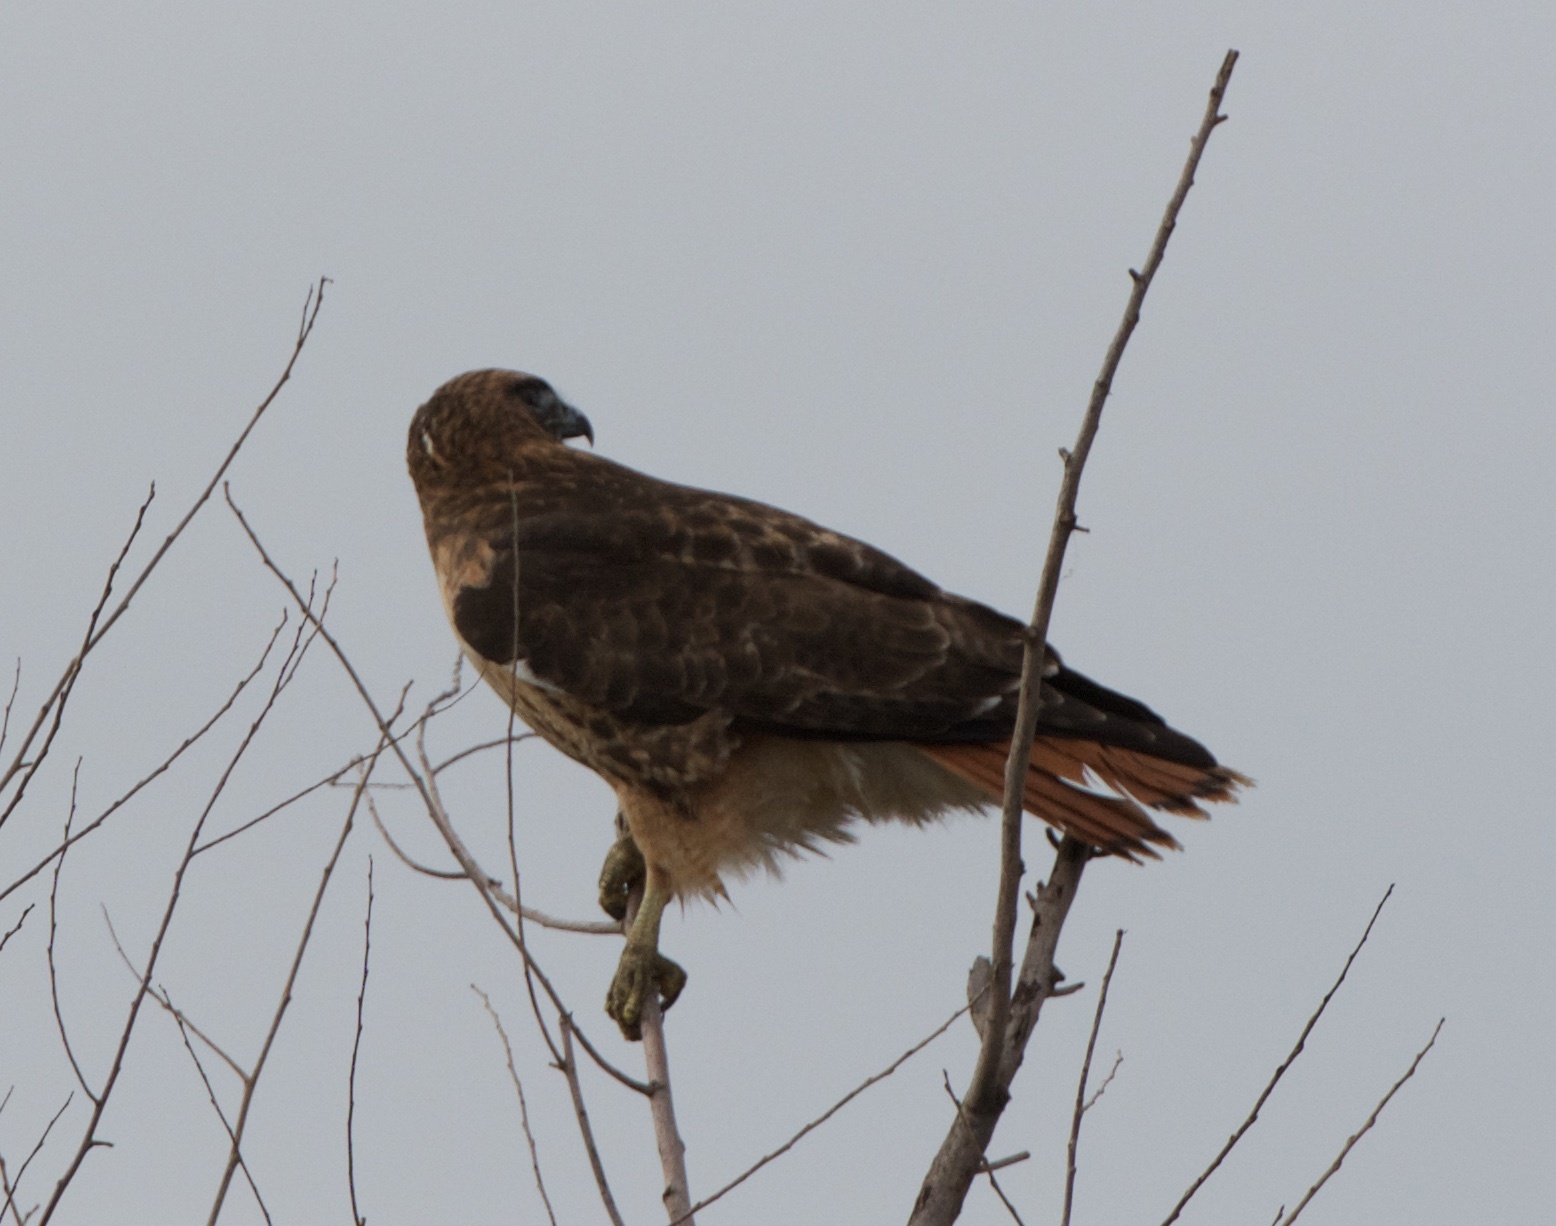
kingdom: Animalia
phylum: Chordata
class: Aves
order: Accipitriformes
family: Accipitridae
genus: Buteo
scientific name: Buteo jamaicensis
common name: Red-tailed hawk
